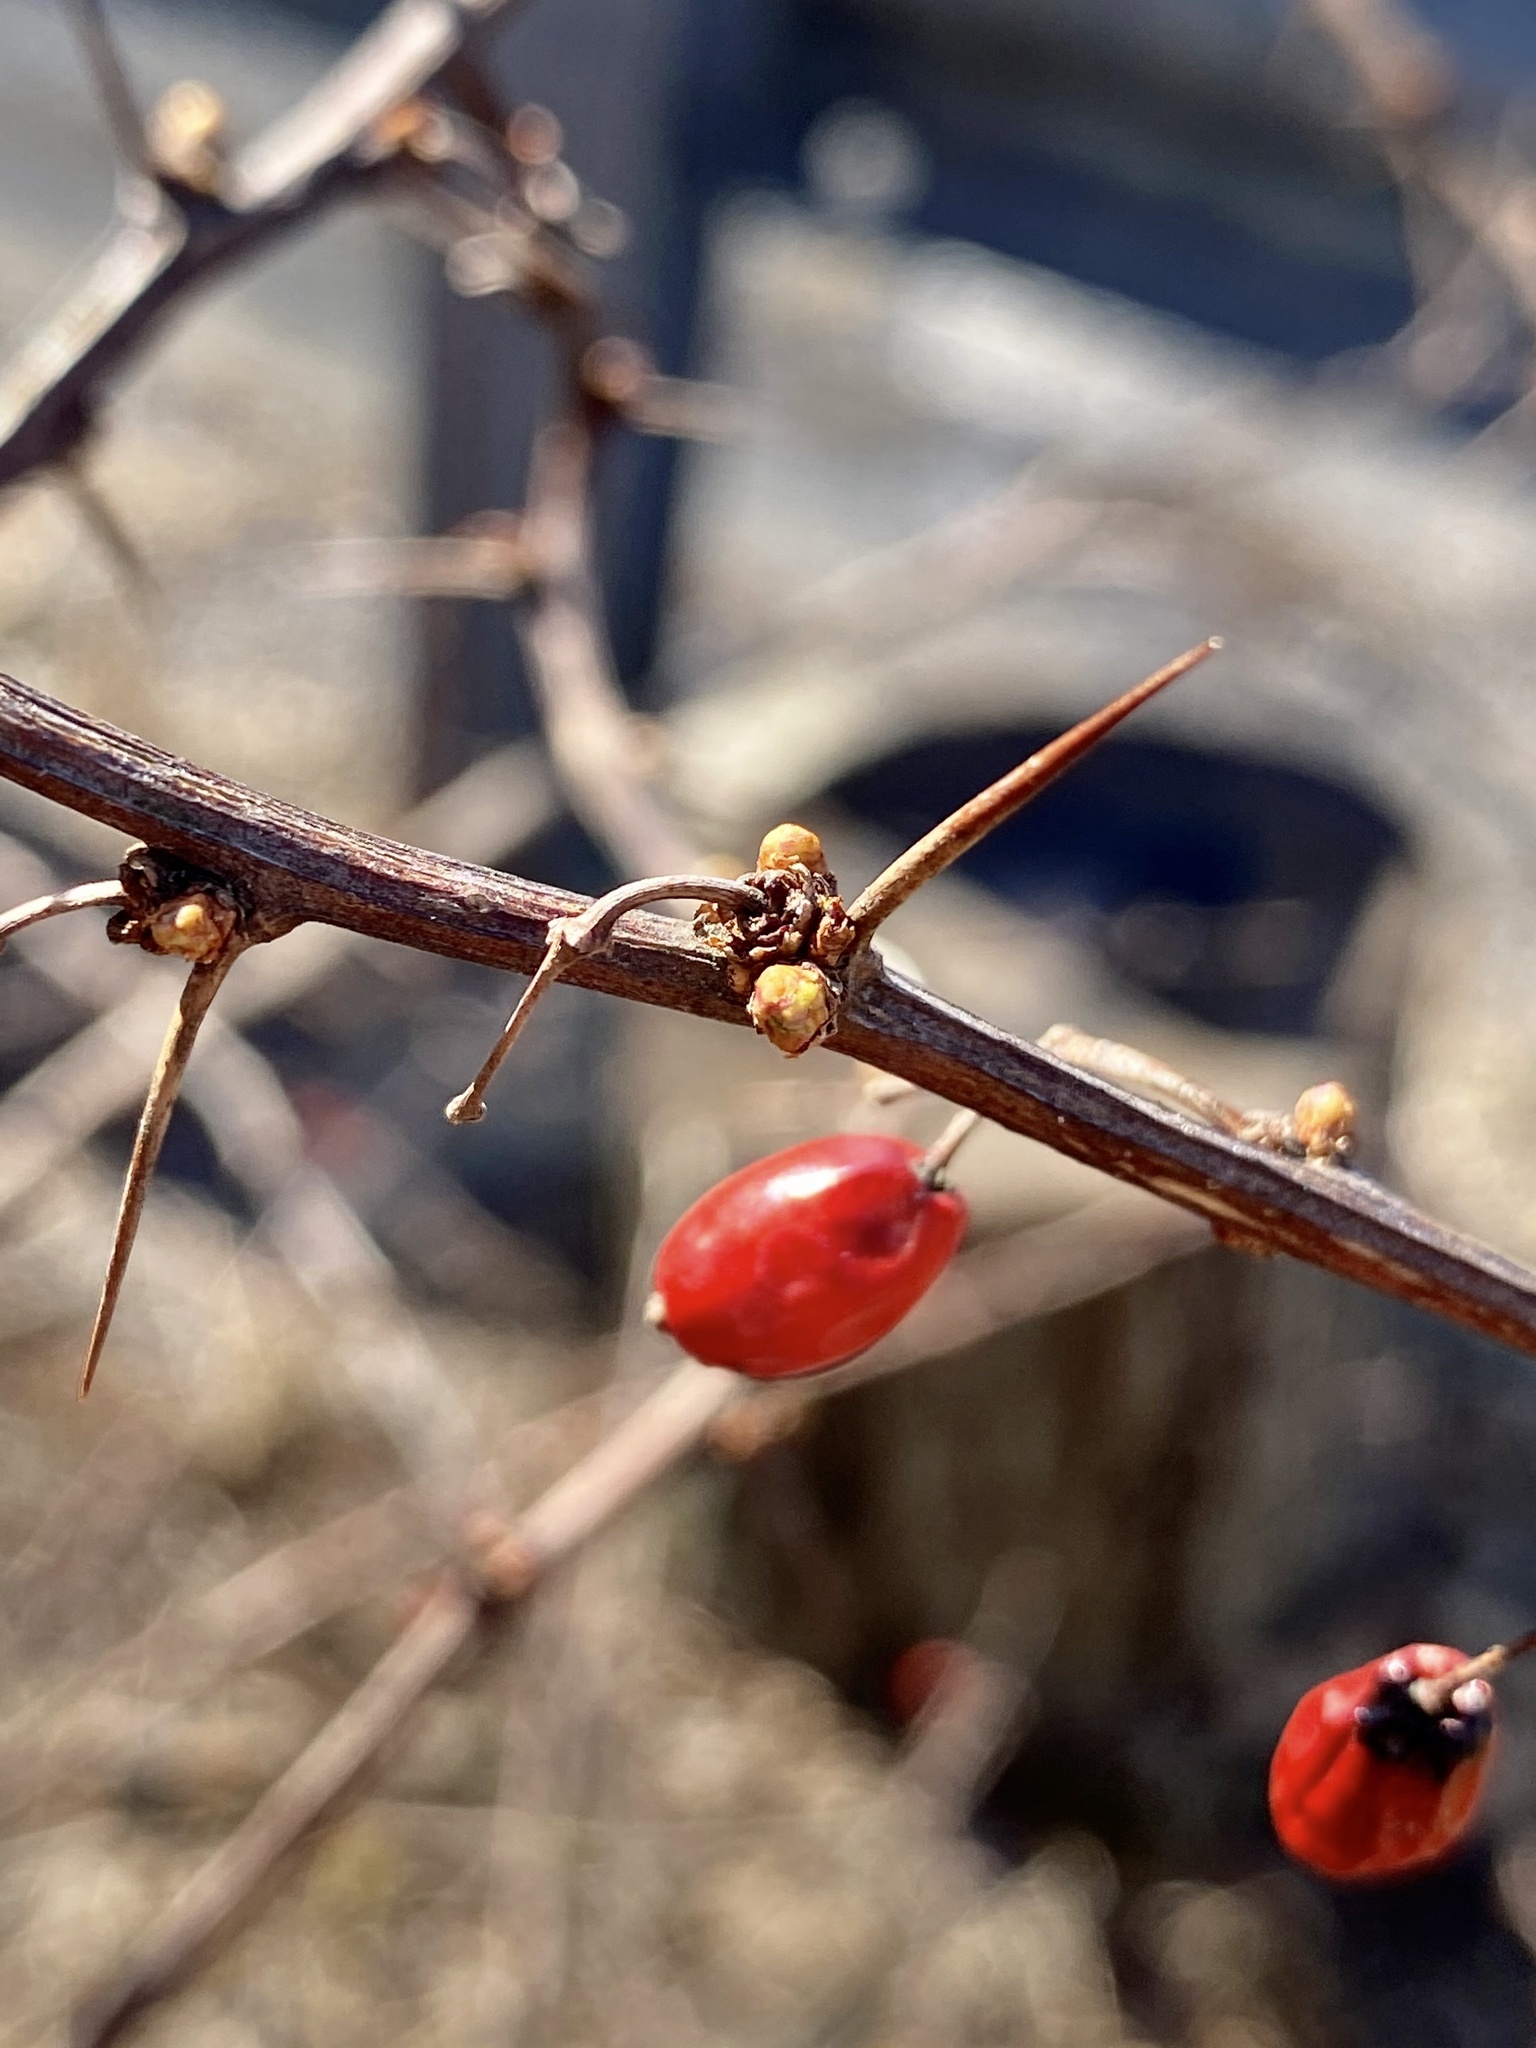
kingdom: Plantae
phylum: Tracheophyta
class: Magnoliopsida
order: Ranunculales
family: Berberidaceae
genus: Berberis
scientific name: Berberis thunbergii
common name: Japanese barberry
